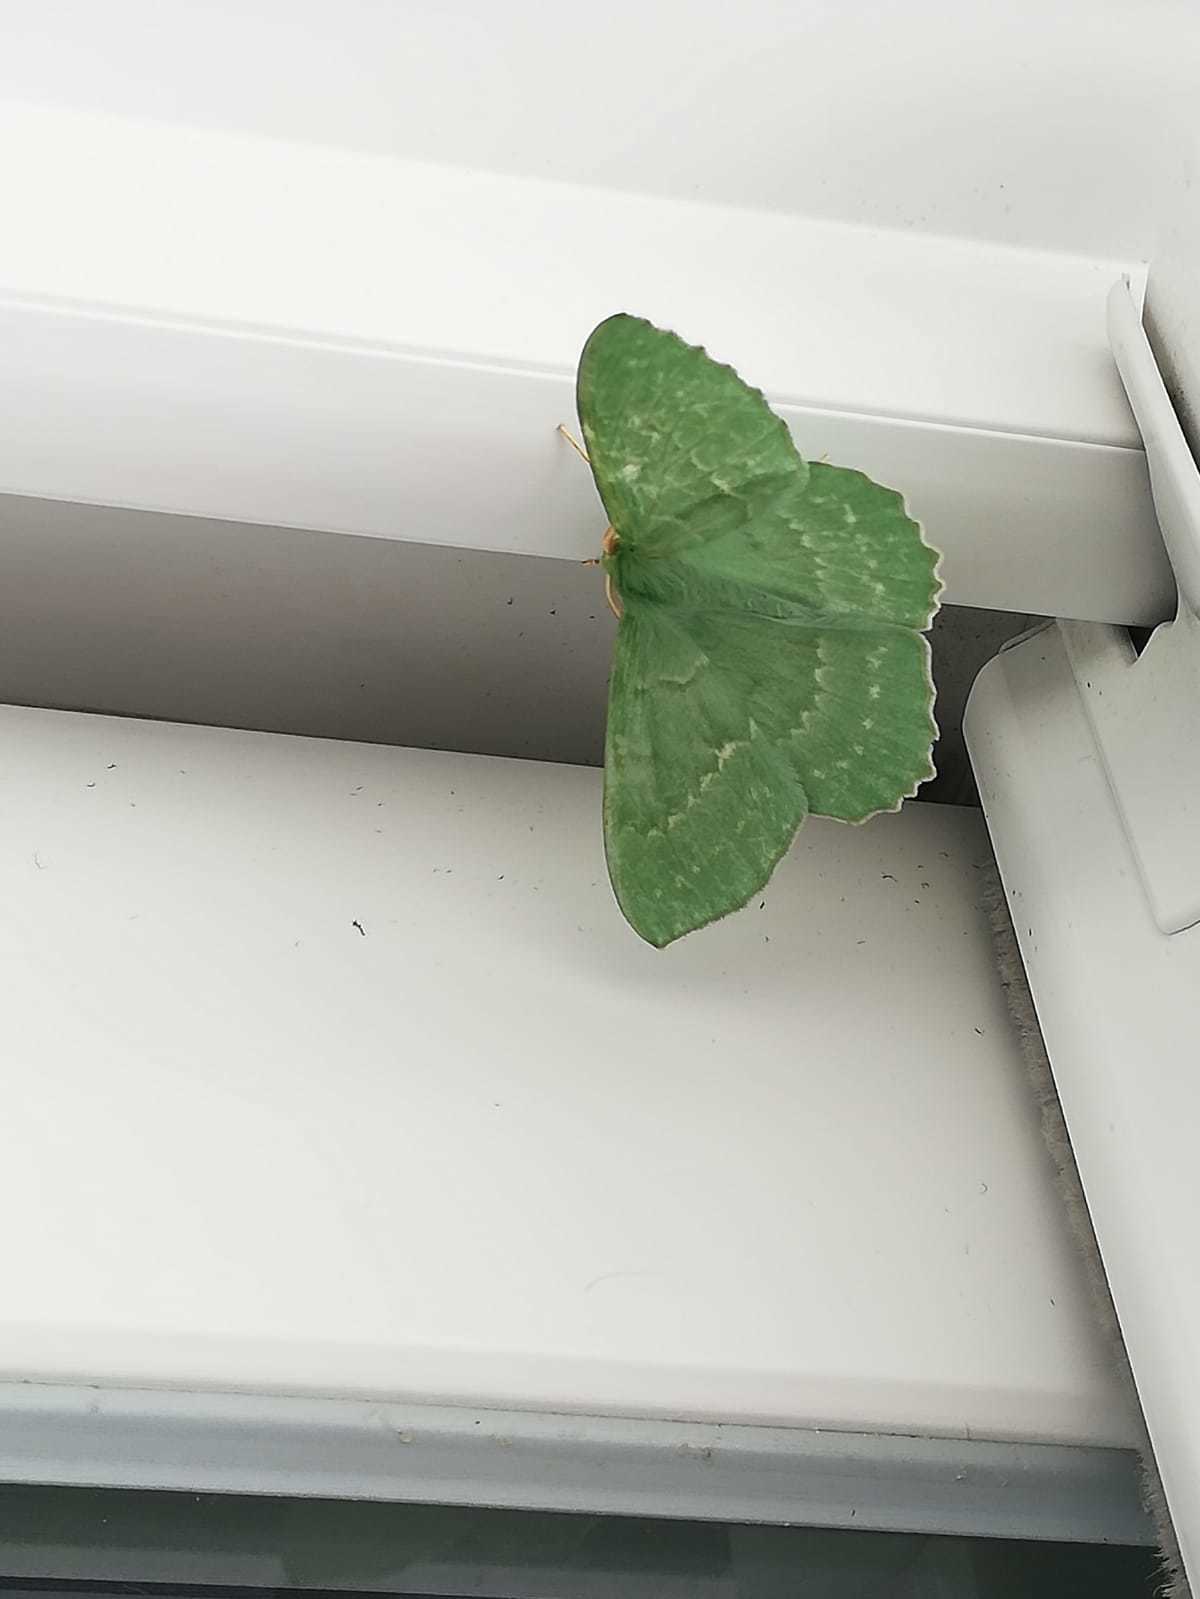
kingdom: Animalia
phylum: Arthropoda
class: Insecta
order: Lepidoptera
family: Geometridae
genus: Geometra
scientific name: Geometra papilionaria
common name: Large emerald
